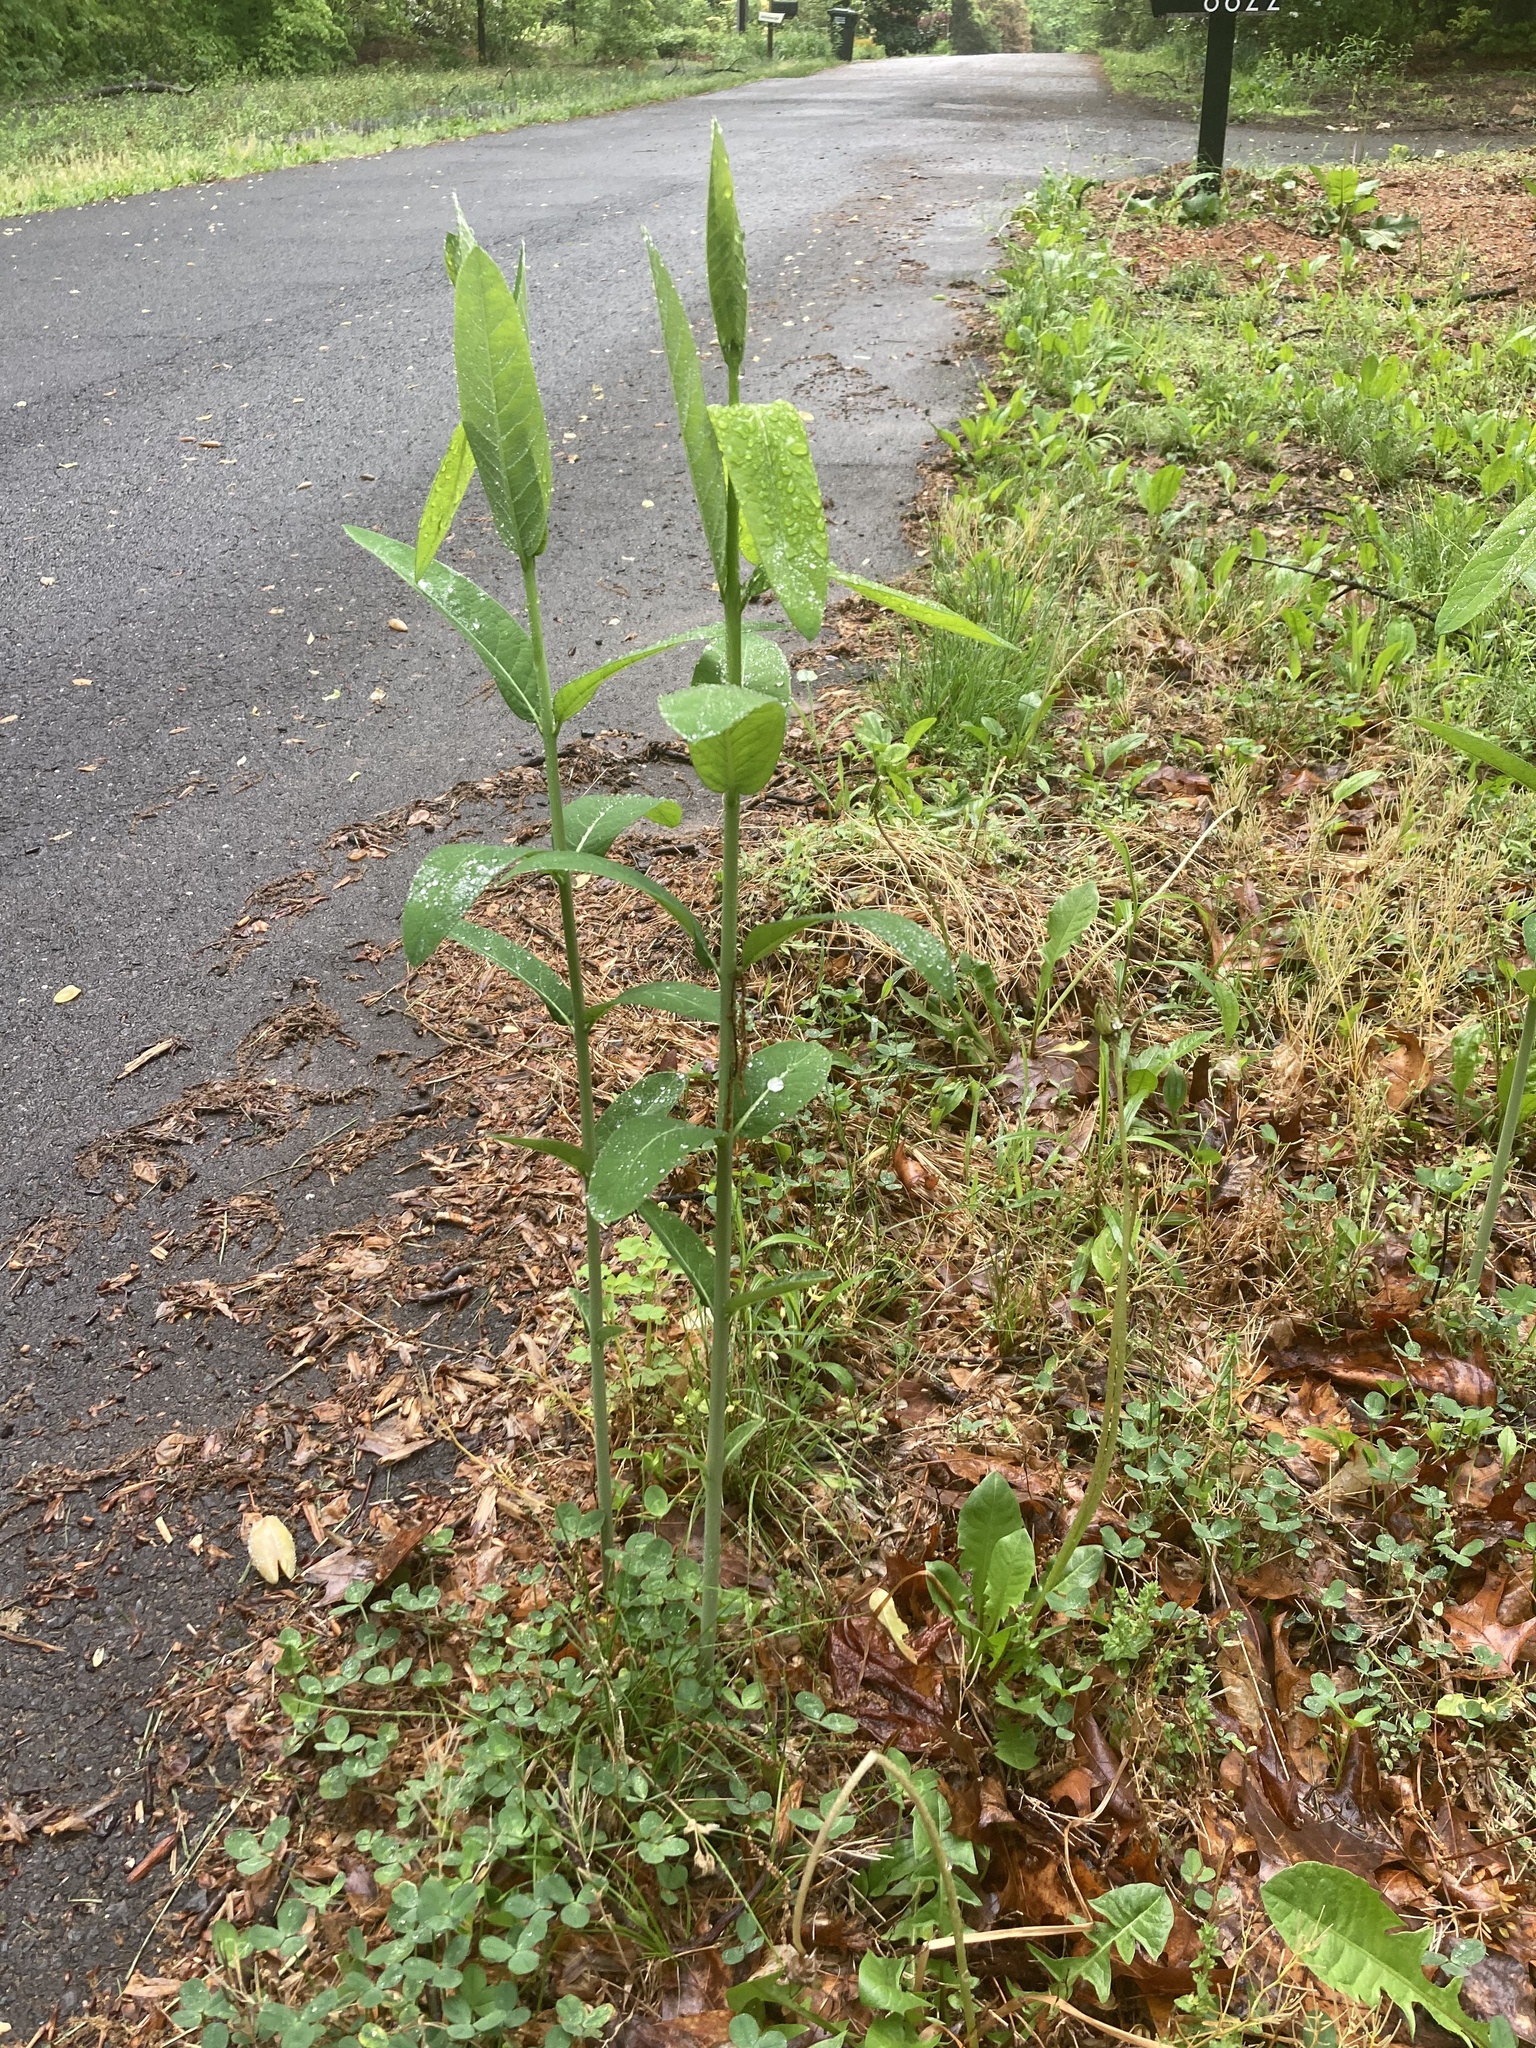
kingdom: Plantae
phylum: Tracheophyta
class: Magnoliopsida
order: Gentianales
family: Apocynaceae
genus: Apocynum
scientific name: Apocynum cannabinum
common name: Hemp dogbane
